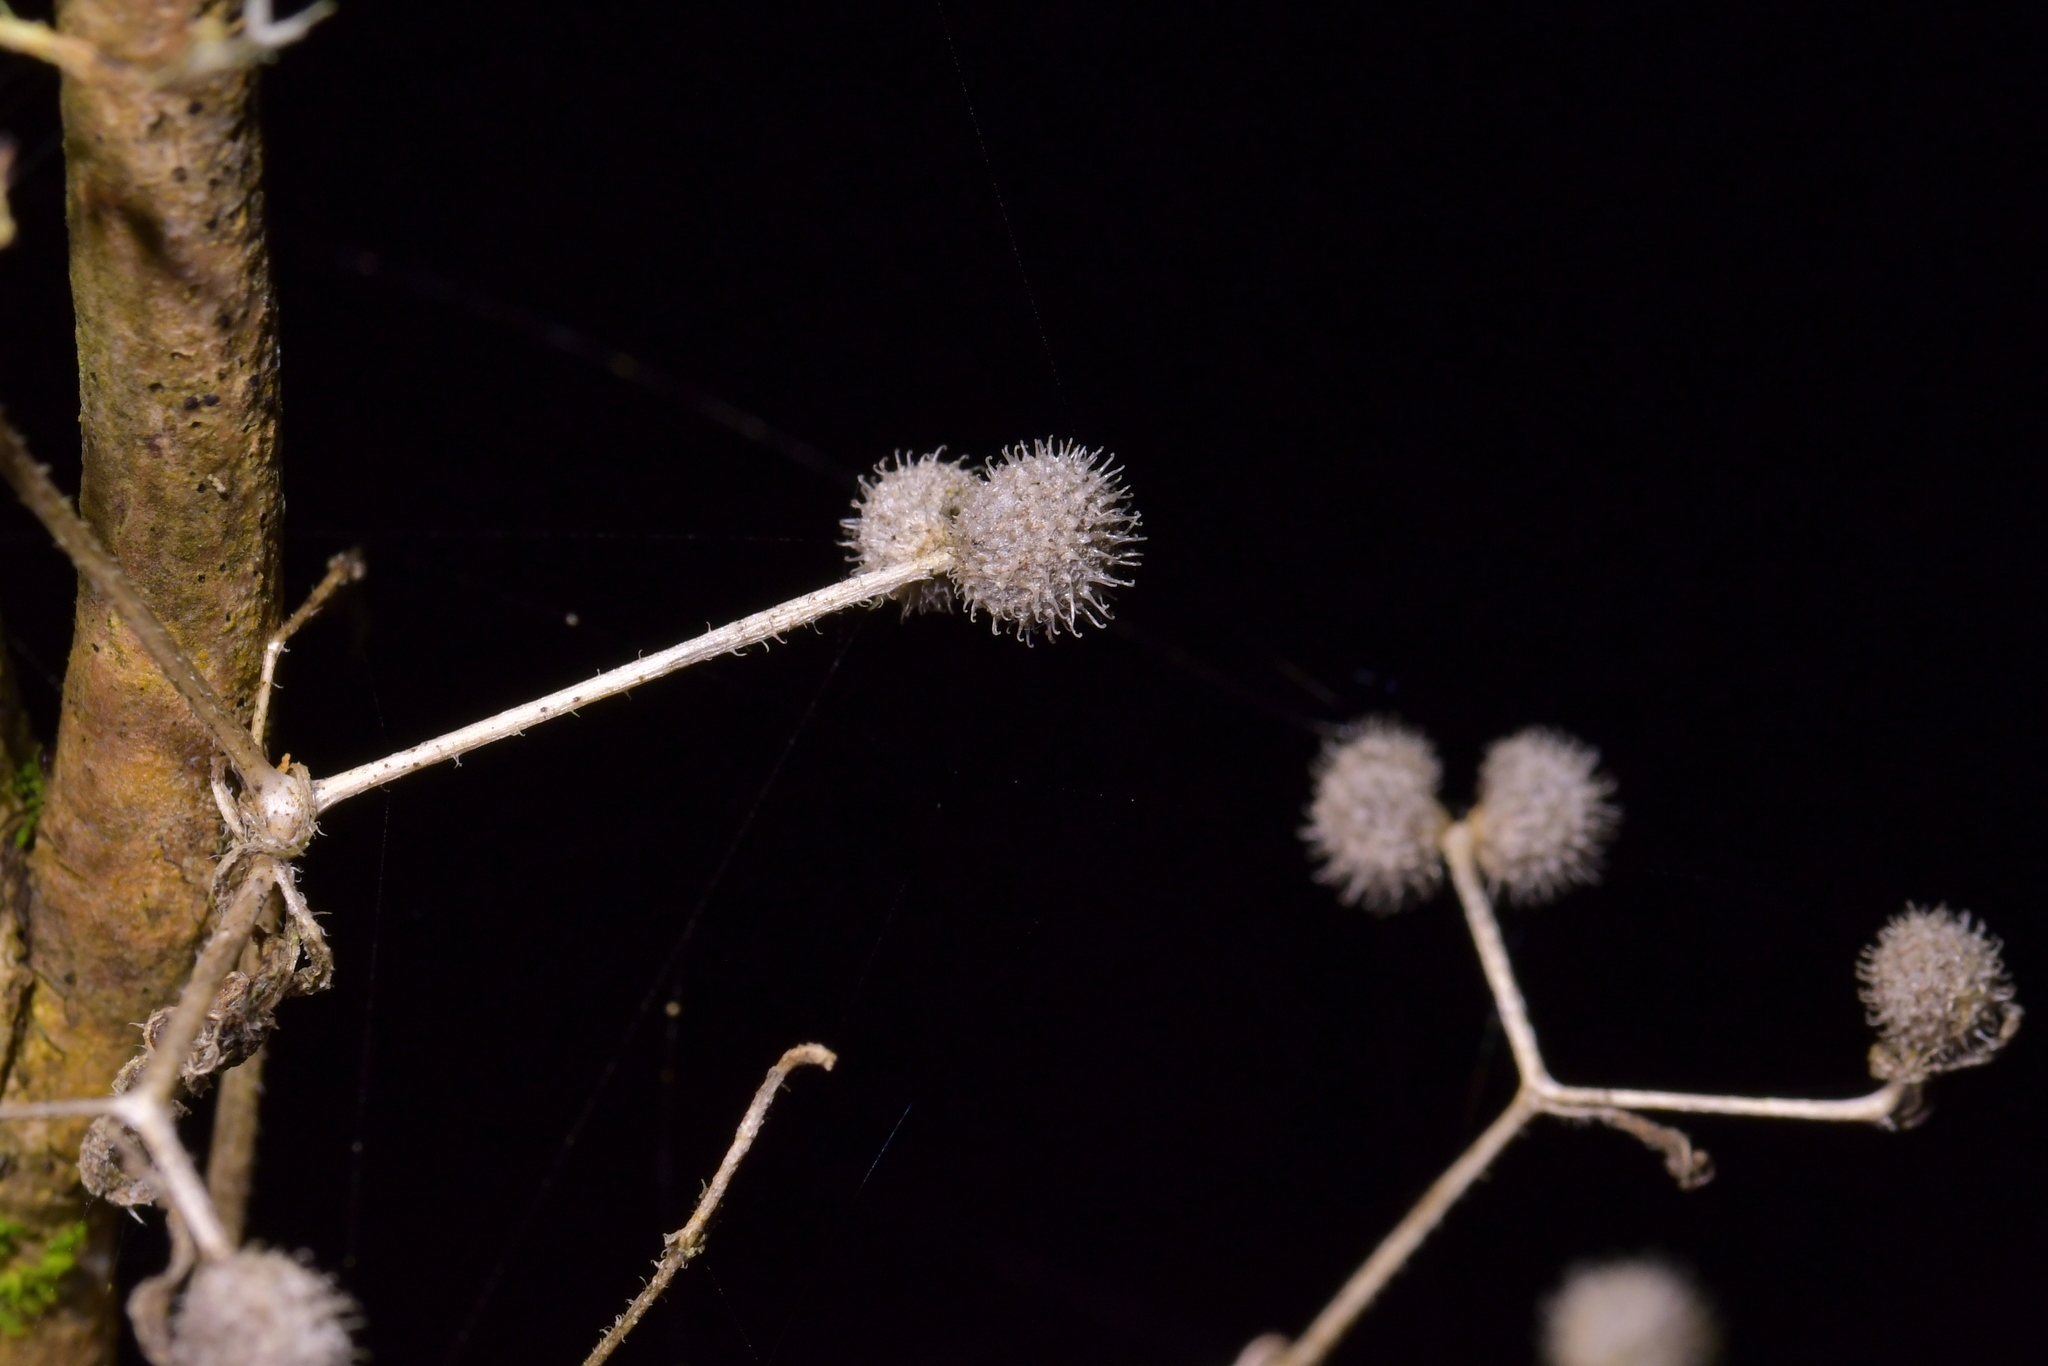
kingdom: Plantae
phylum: Tracheophyta
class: Magnoliopsida
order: Gentianales
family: Rubiaceae
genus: Galium
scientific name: Galium aparine
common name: Cleavers
